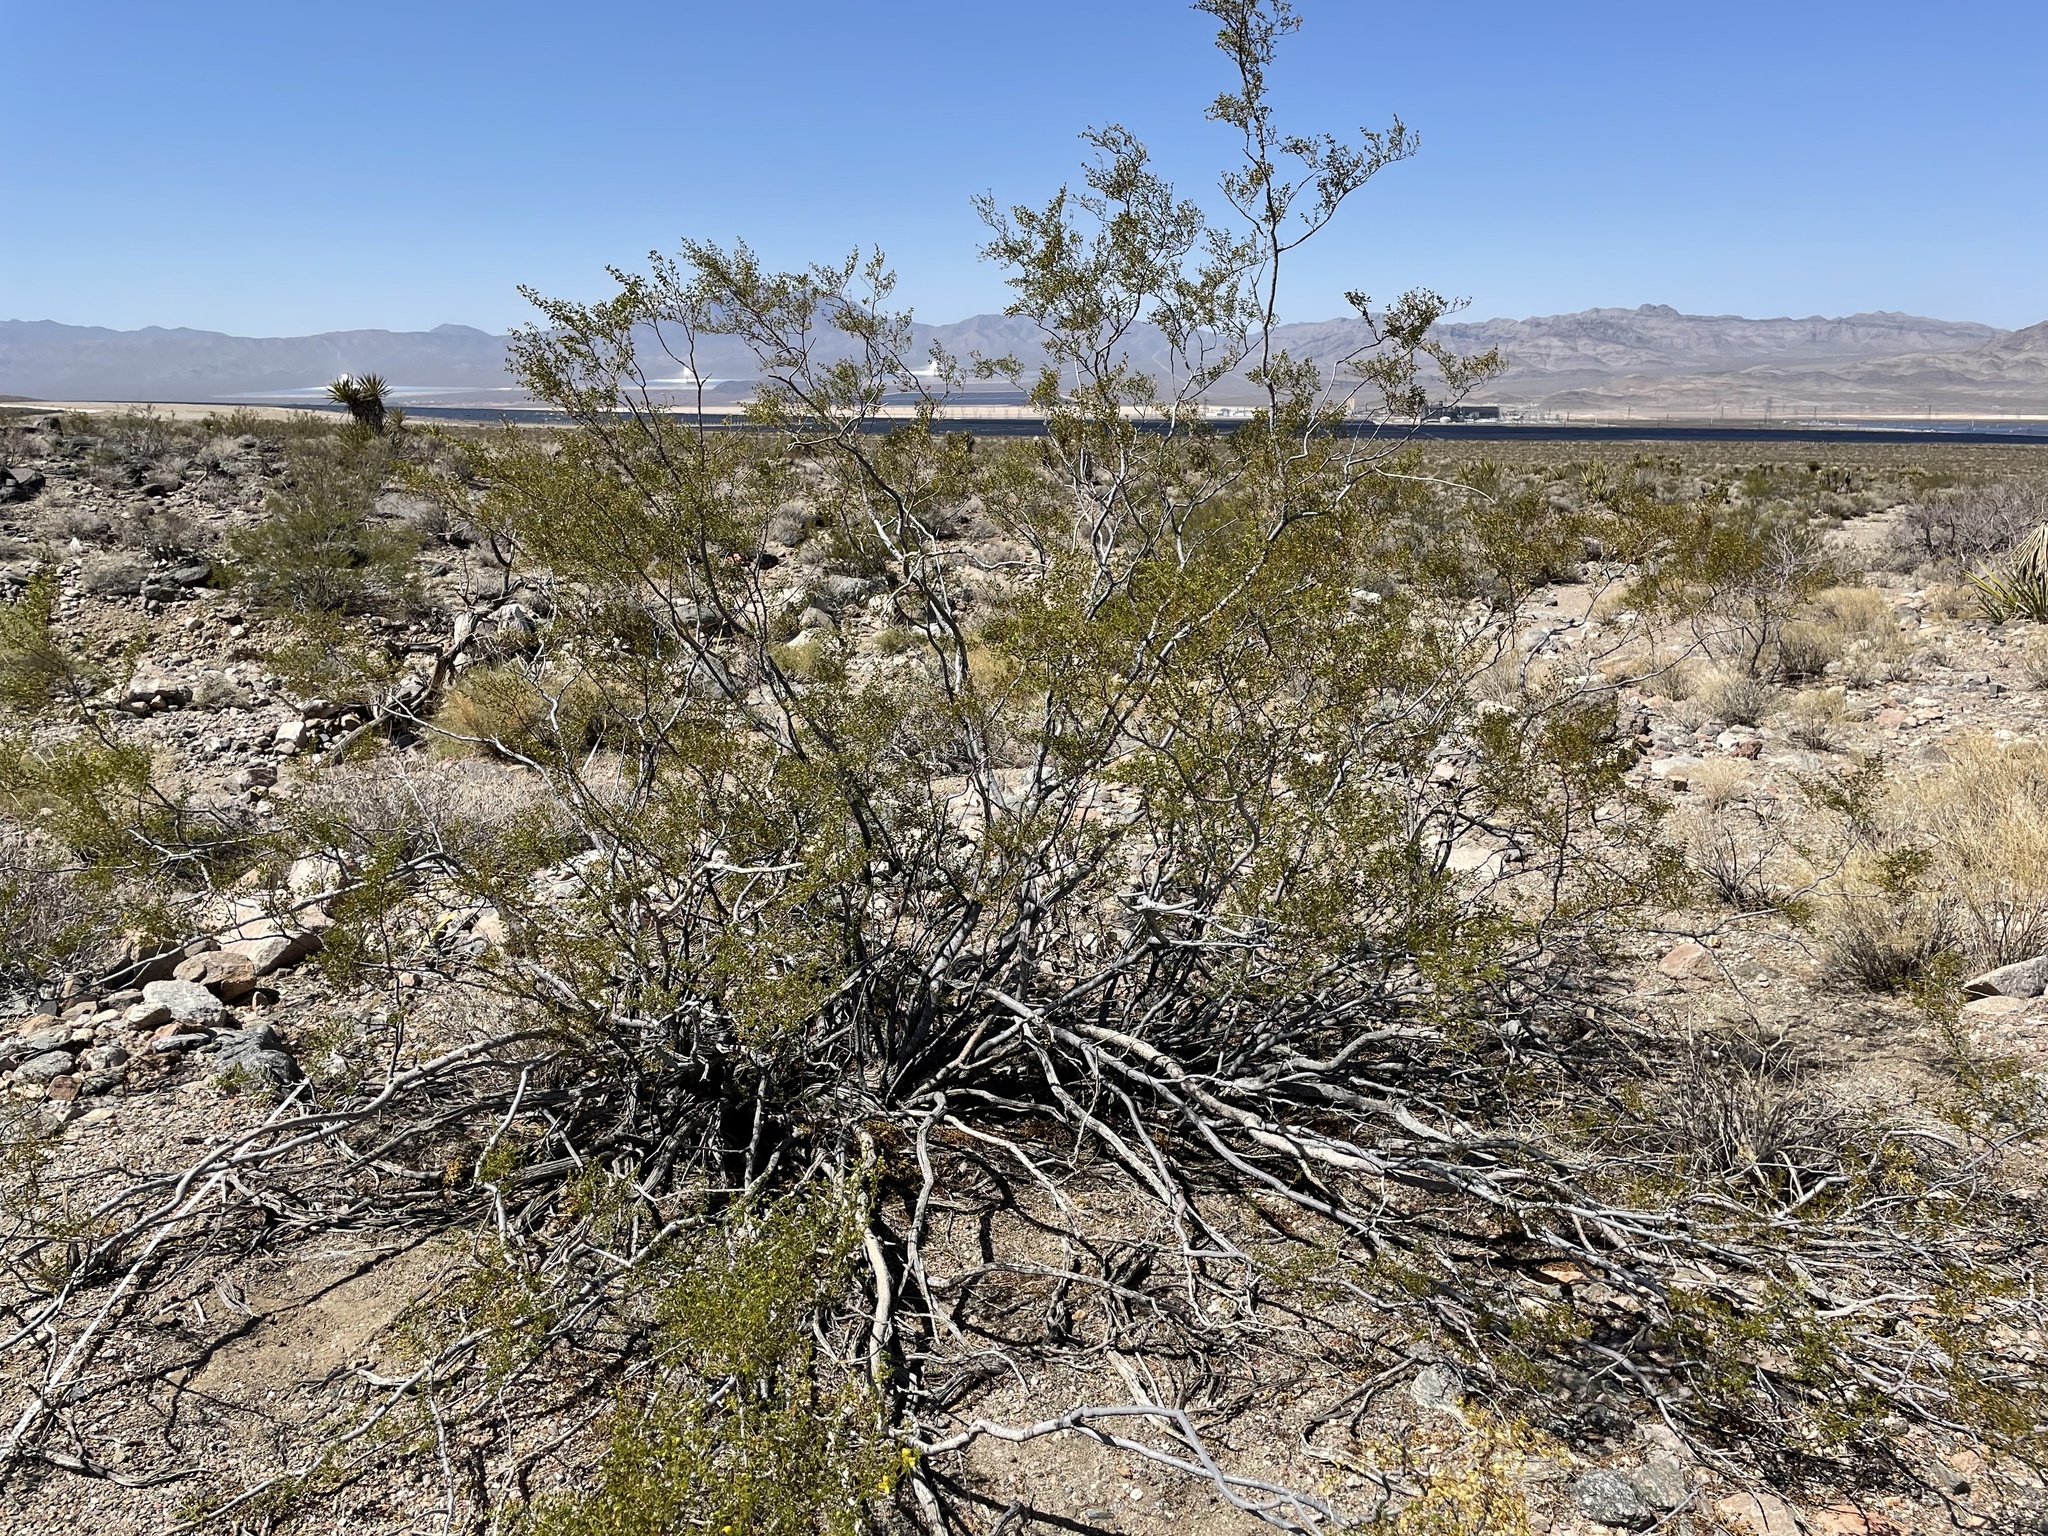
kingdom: Plantae
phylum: Tracheophyta
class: Magnoliopsida
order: Zygophyllales
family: Zygophyllaceae
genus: Larrea
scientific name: Larrea tridentata
